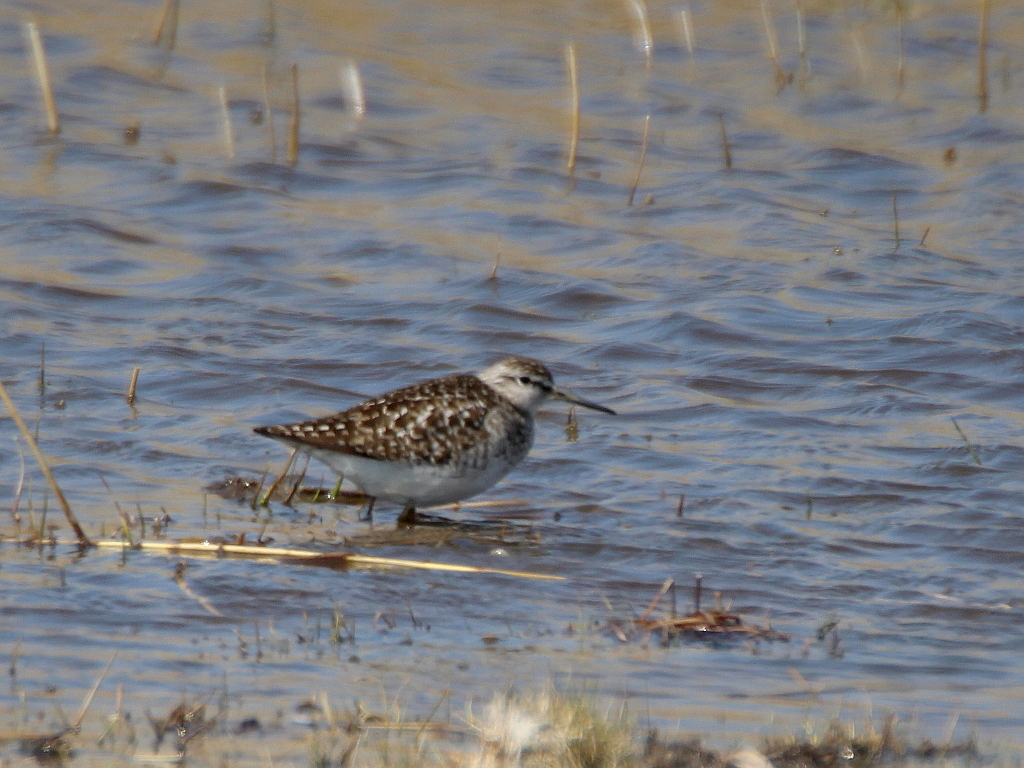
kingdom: Animalia
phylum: Chordata
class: Aves
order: Charadriiformes
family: Scolopacidae
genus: Tringa
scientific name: Tringa glareola
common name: Wood sandpiper
